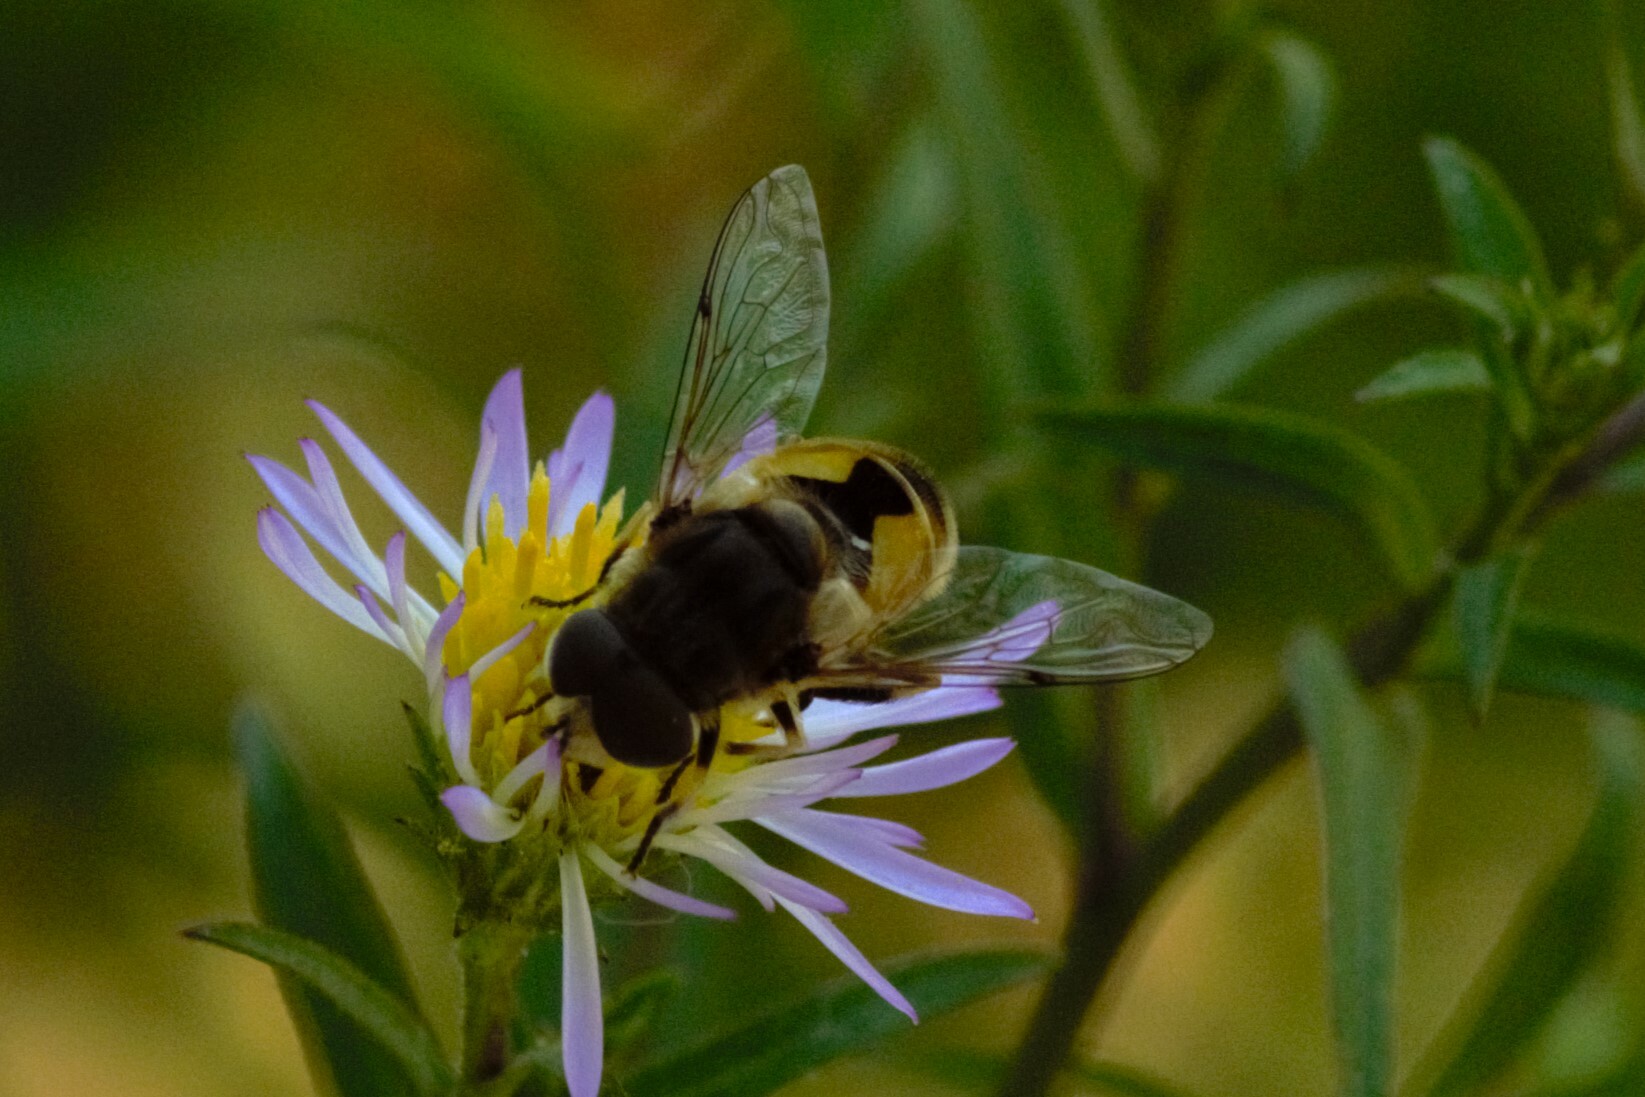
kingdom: Animalia
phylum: Arthropoda
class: Insecta
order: Diptera
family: Syrphidae
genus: Eristalis
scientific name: Eristalis arbustorum
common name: Hover fly
